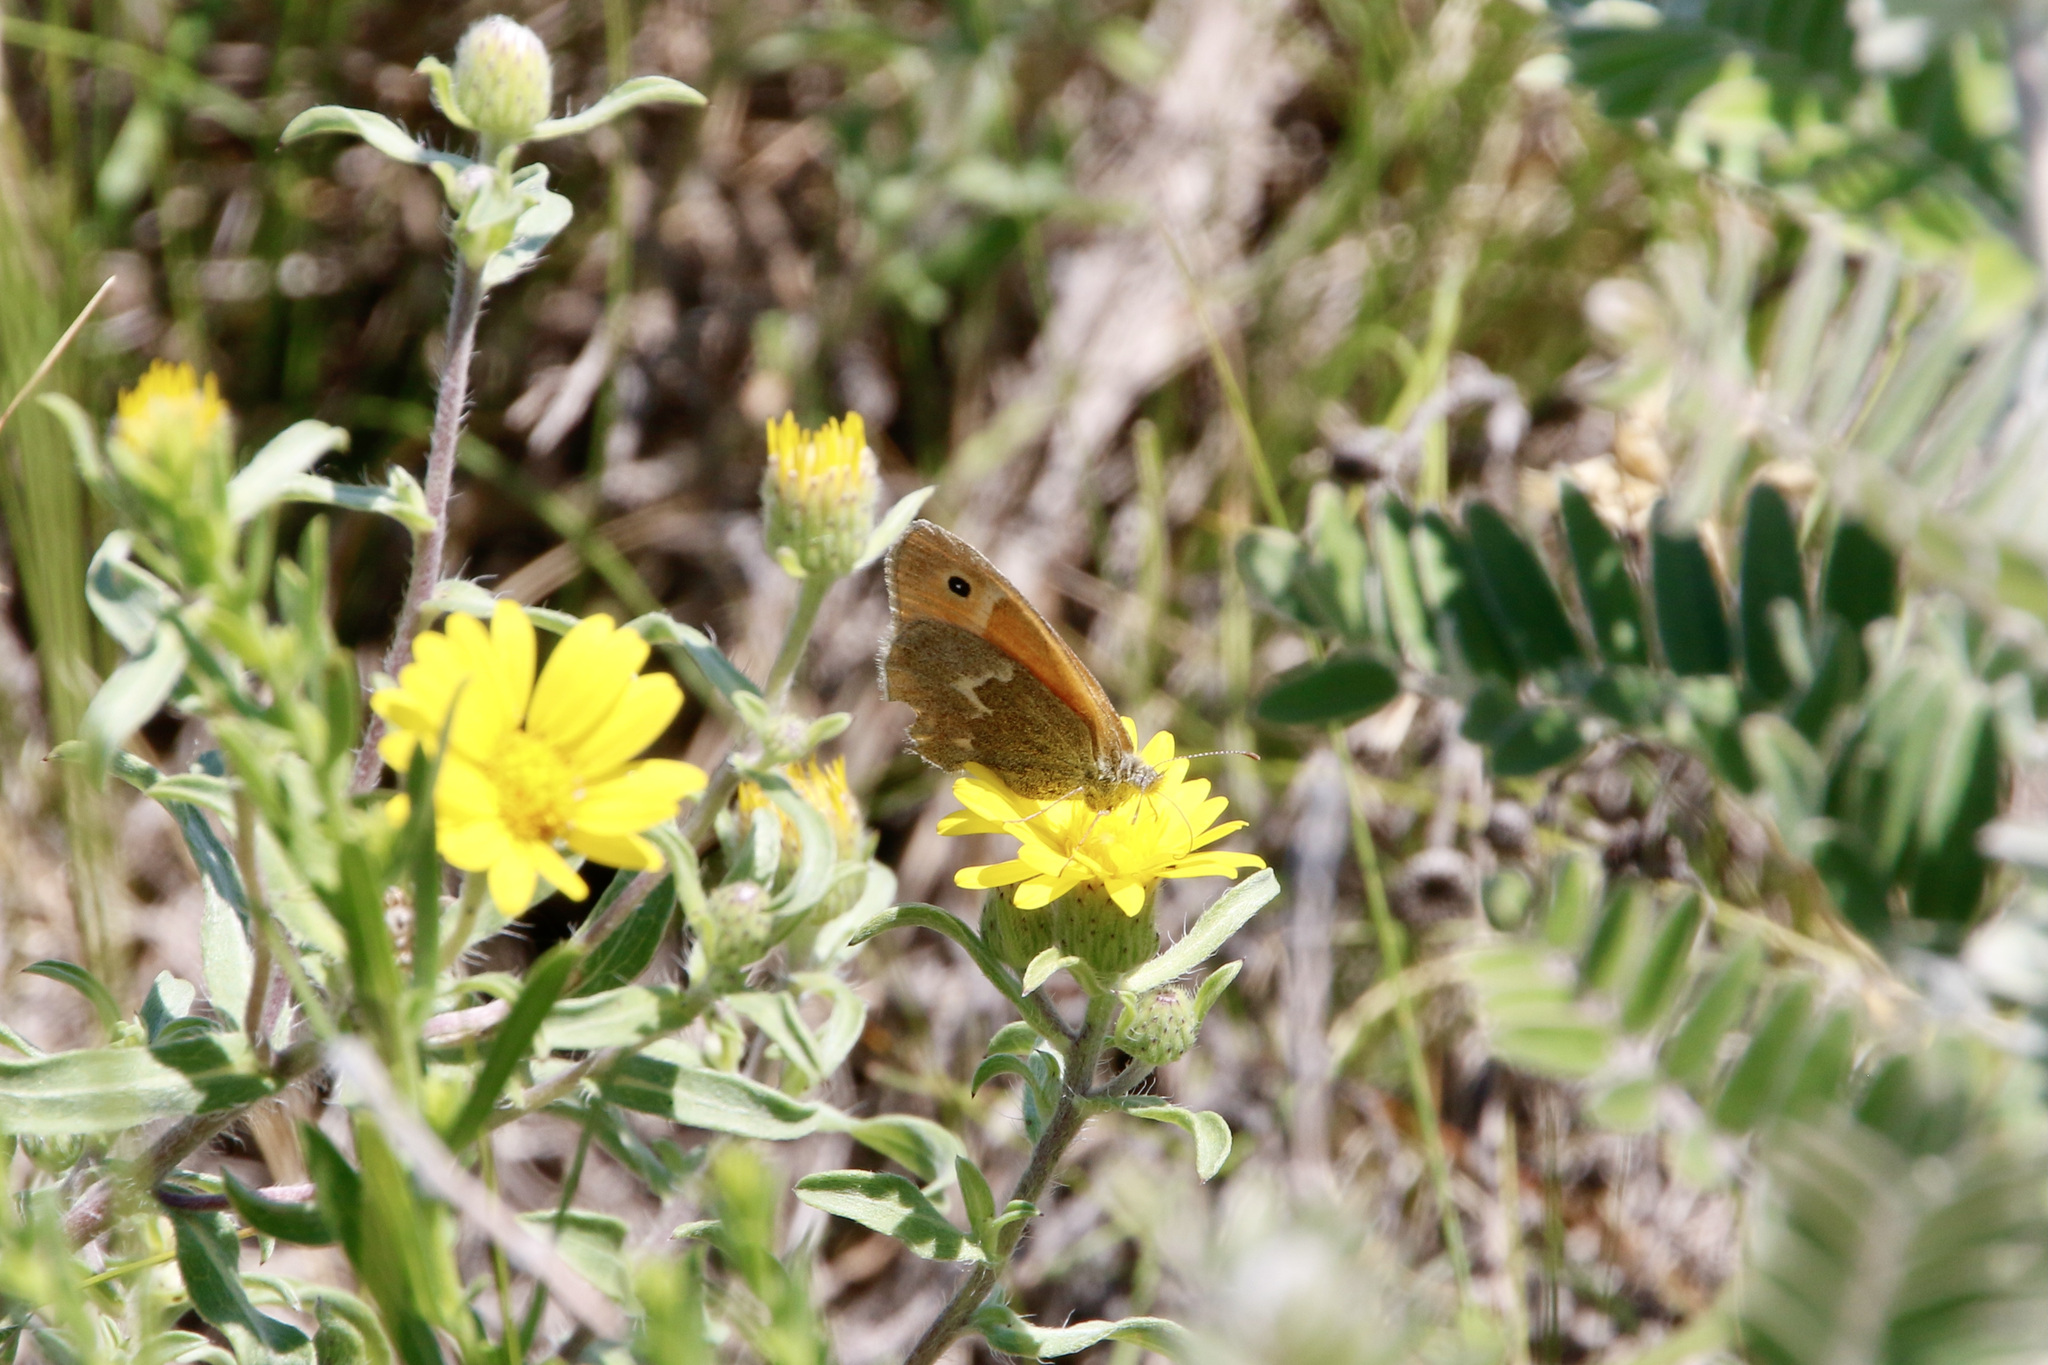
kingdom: Animalia
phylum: Arthropoda
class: Insecta
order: Lepidoptera
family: Nymphalidae
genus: Coenonympha
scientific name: Coenonympha california
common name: Common ringlet
